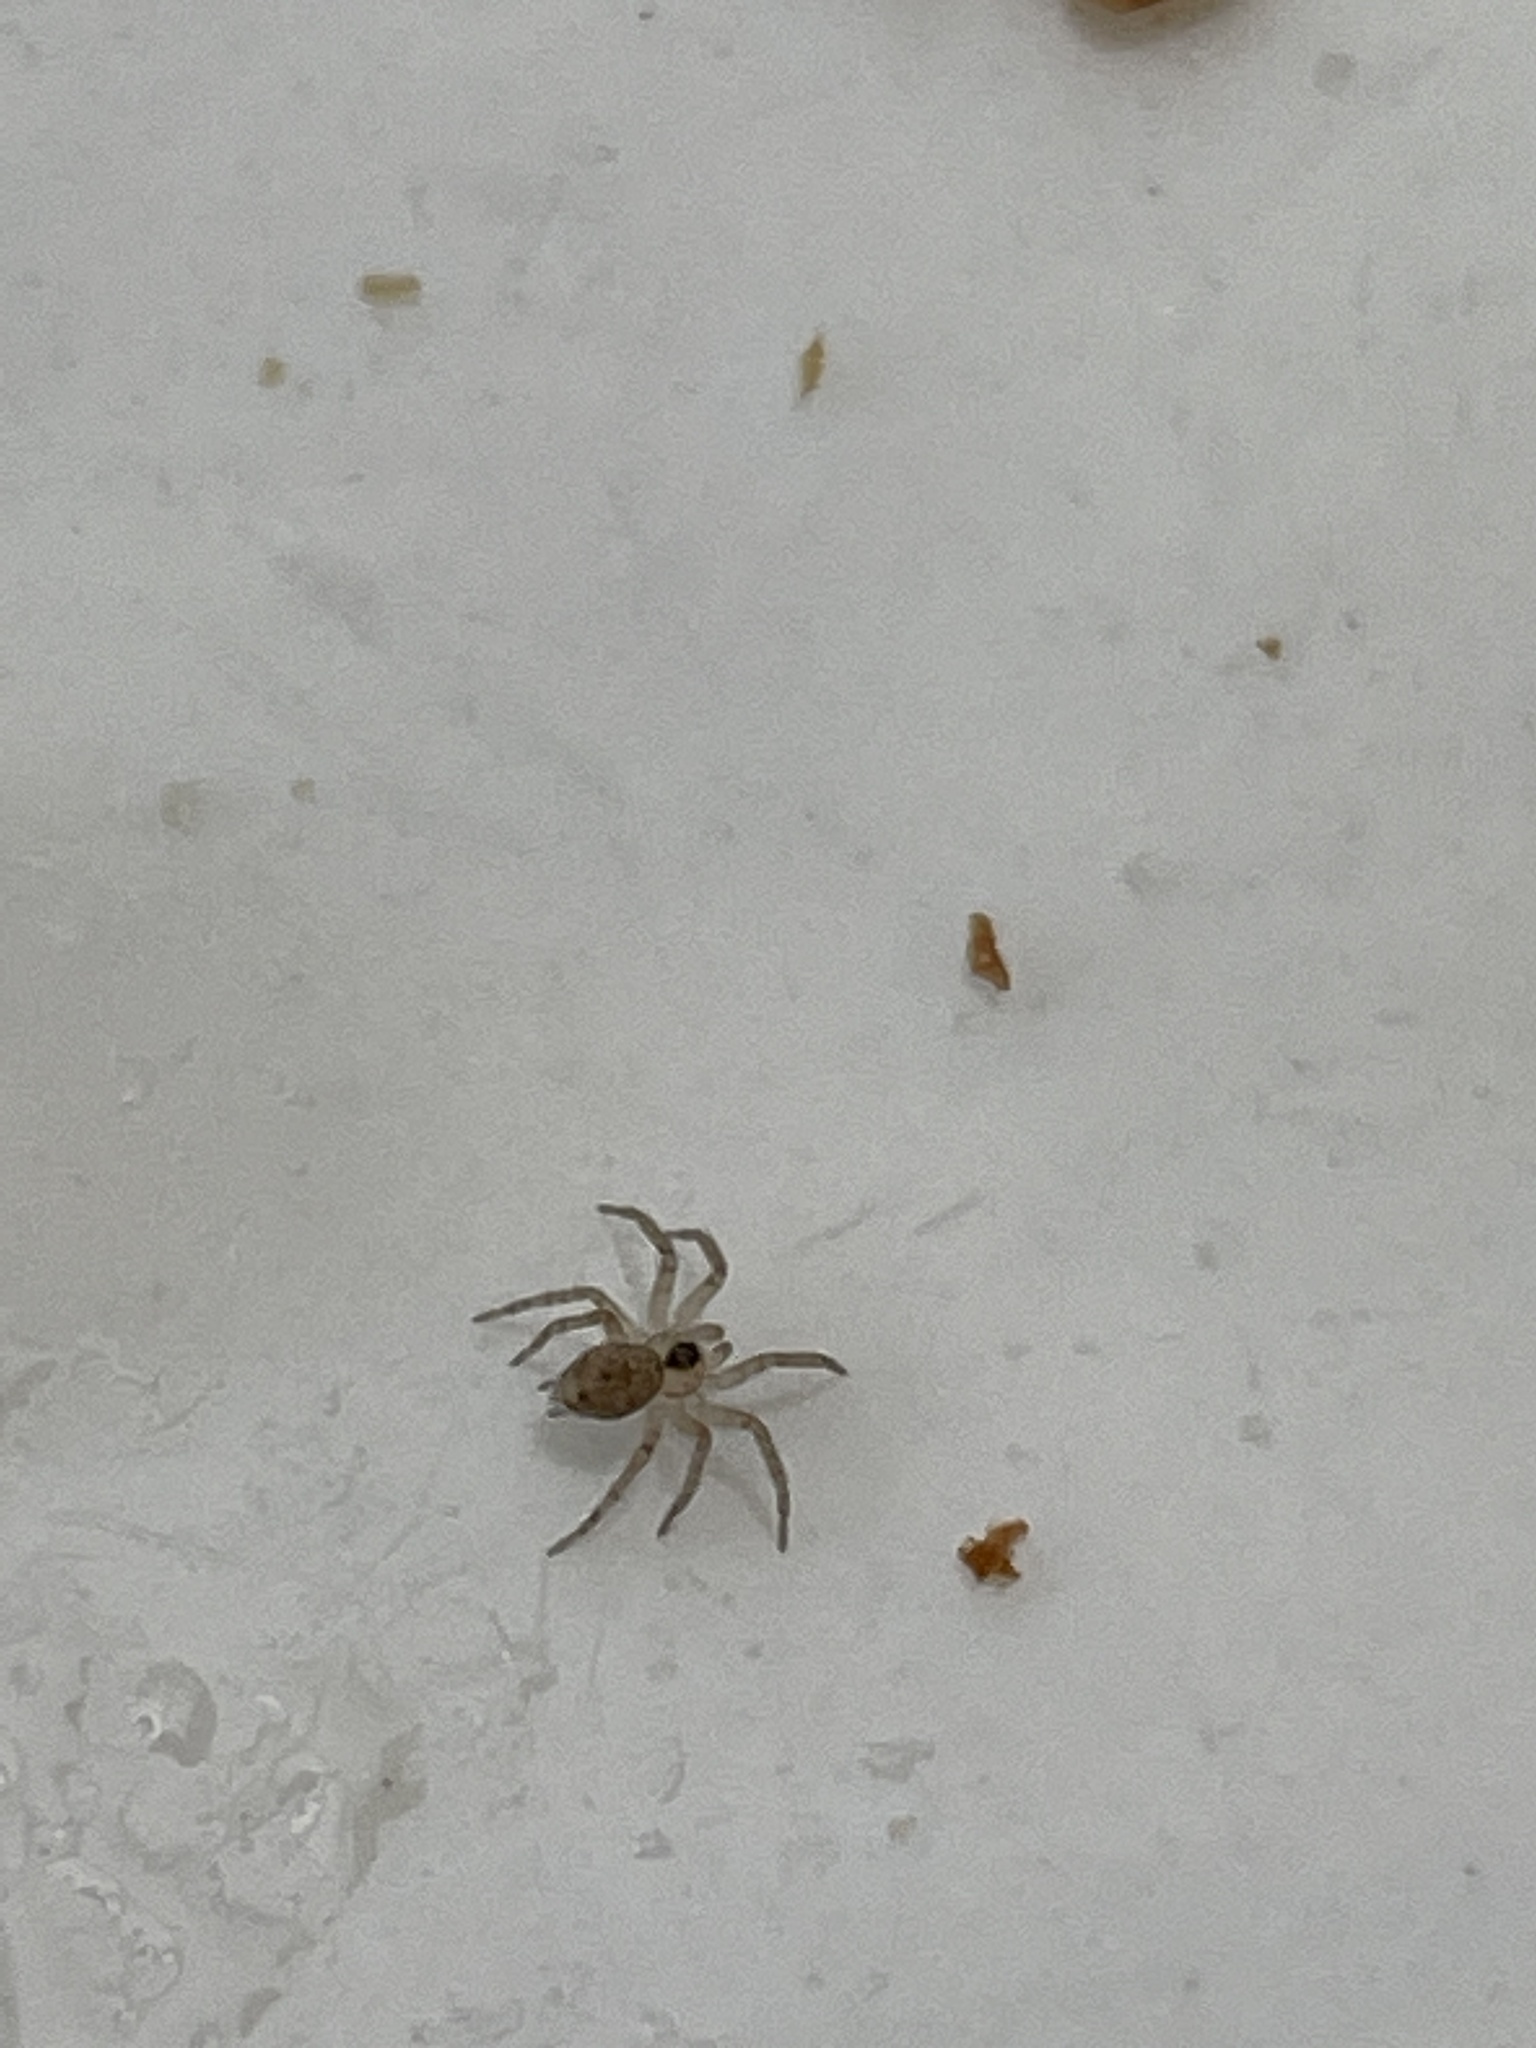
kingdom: Animalia
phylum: Arthropoda
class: Arachnida
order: Araneae
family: Oecobiidae
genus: Oecobius
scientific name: Oecobius navus
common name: Flatmesh weaver
